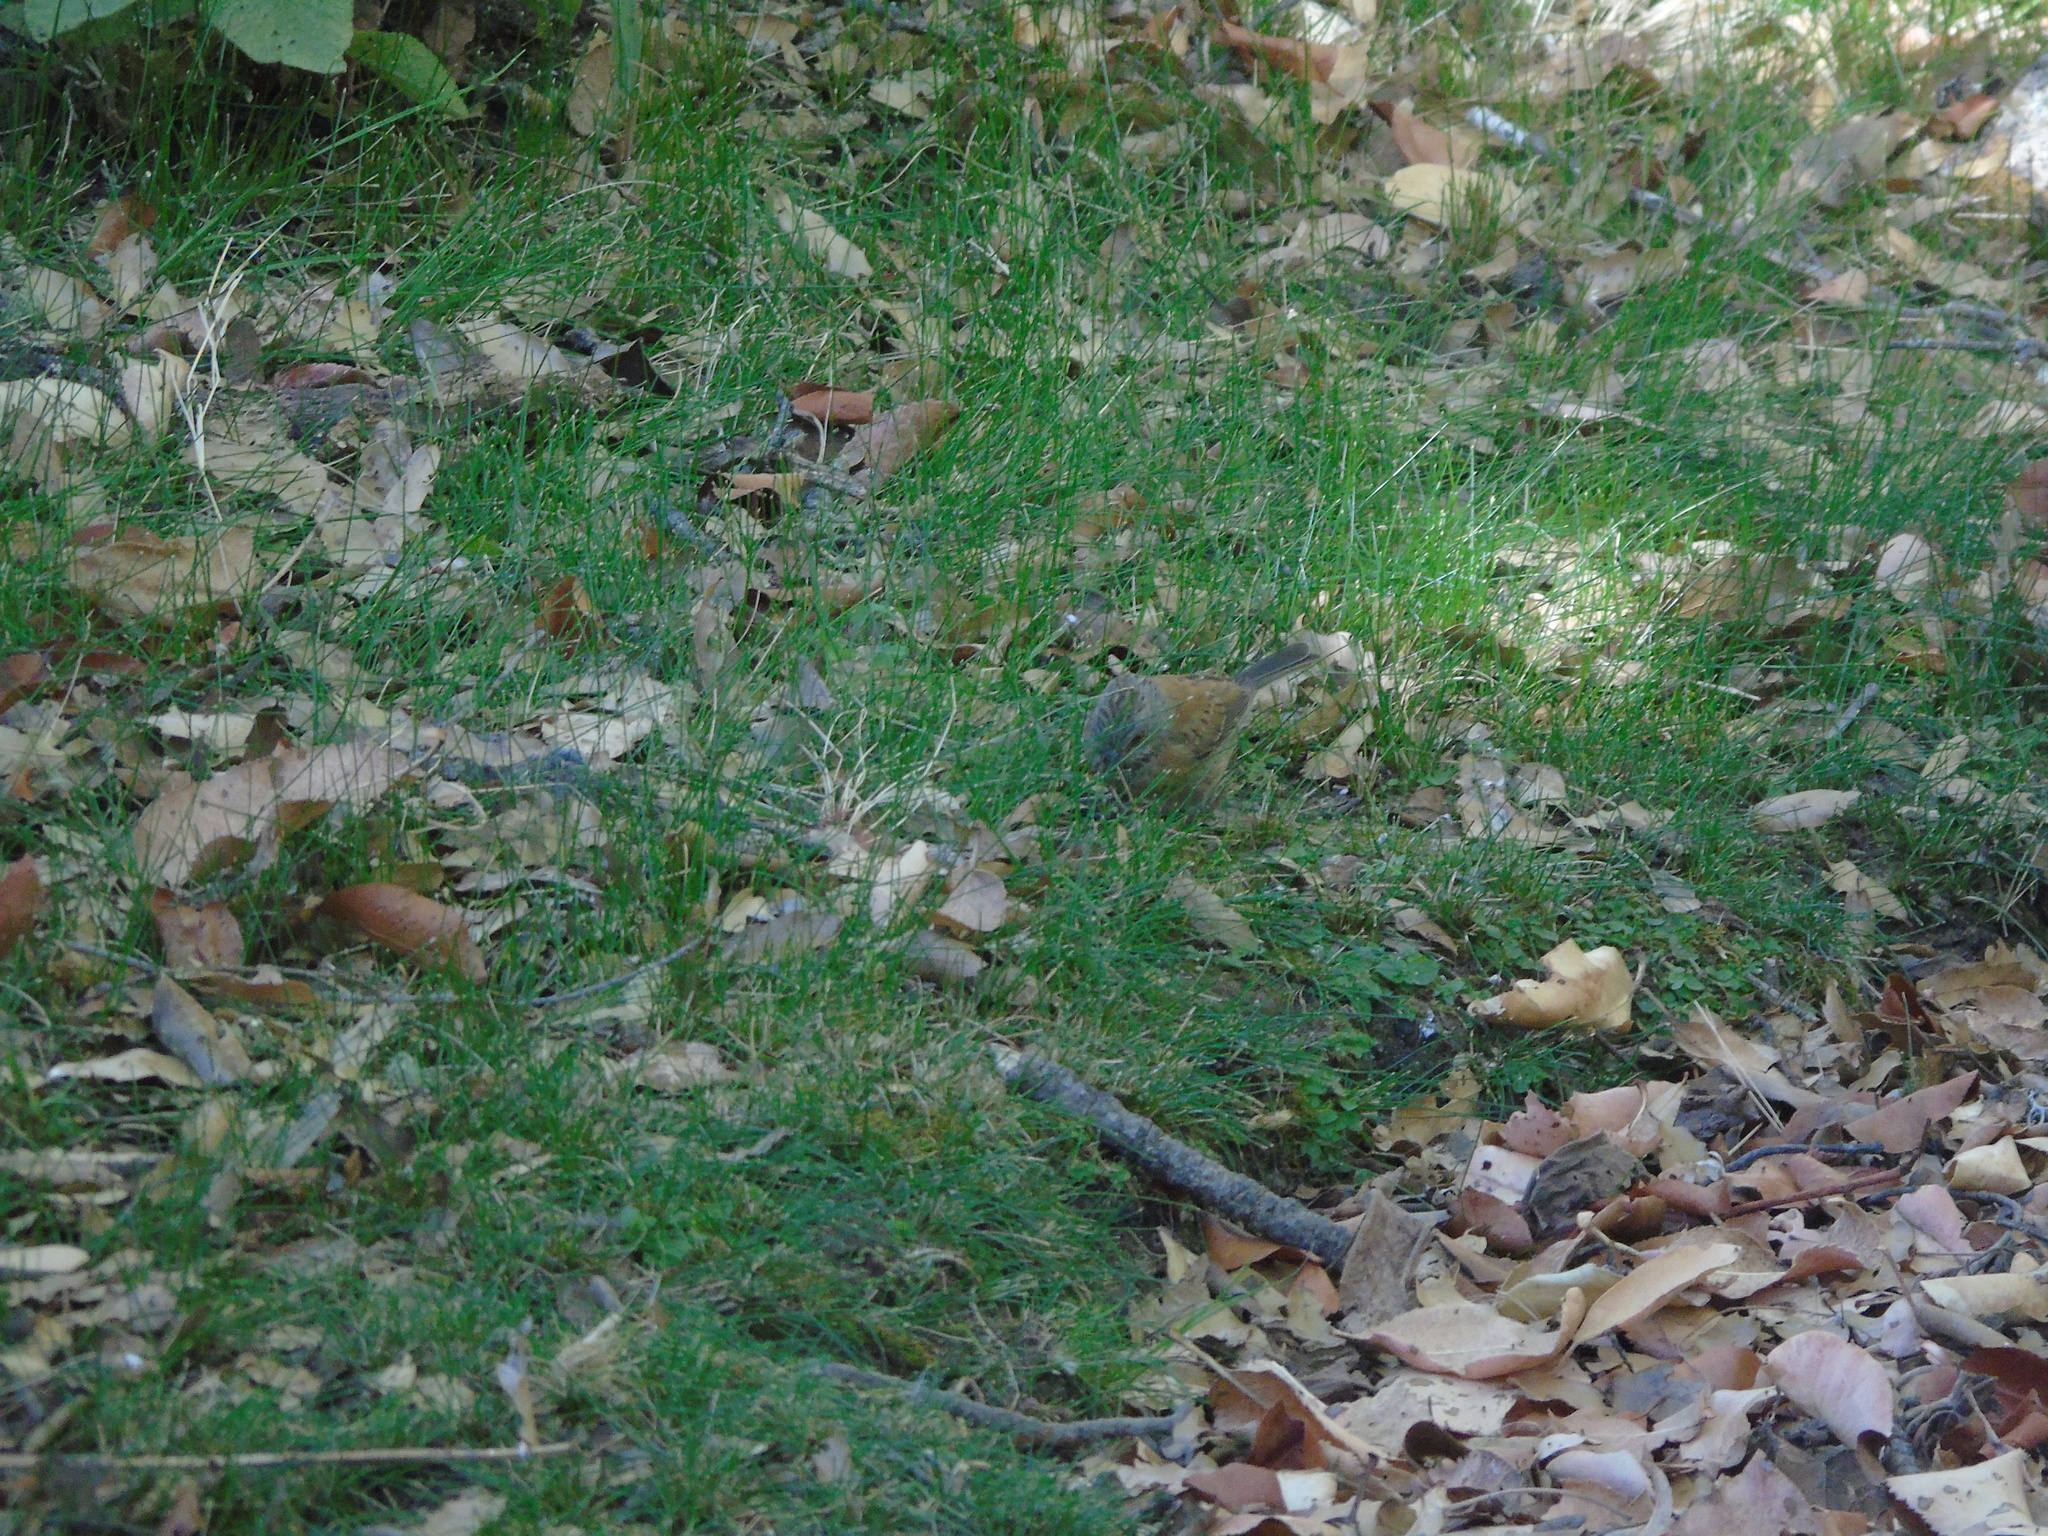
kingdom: Animalia
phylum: Chordata
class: Aves
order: Passeriformes
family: Passerellidae
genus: Junco
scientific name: Junco bairdi
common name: Baird's junco
